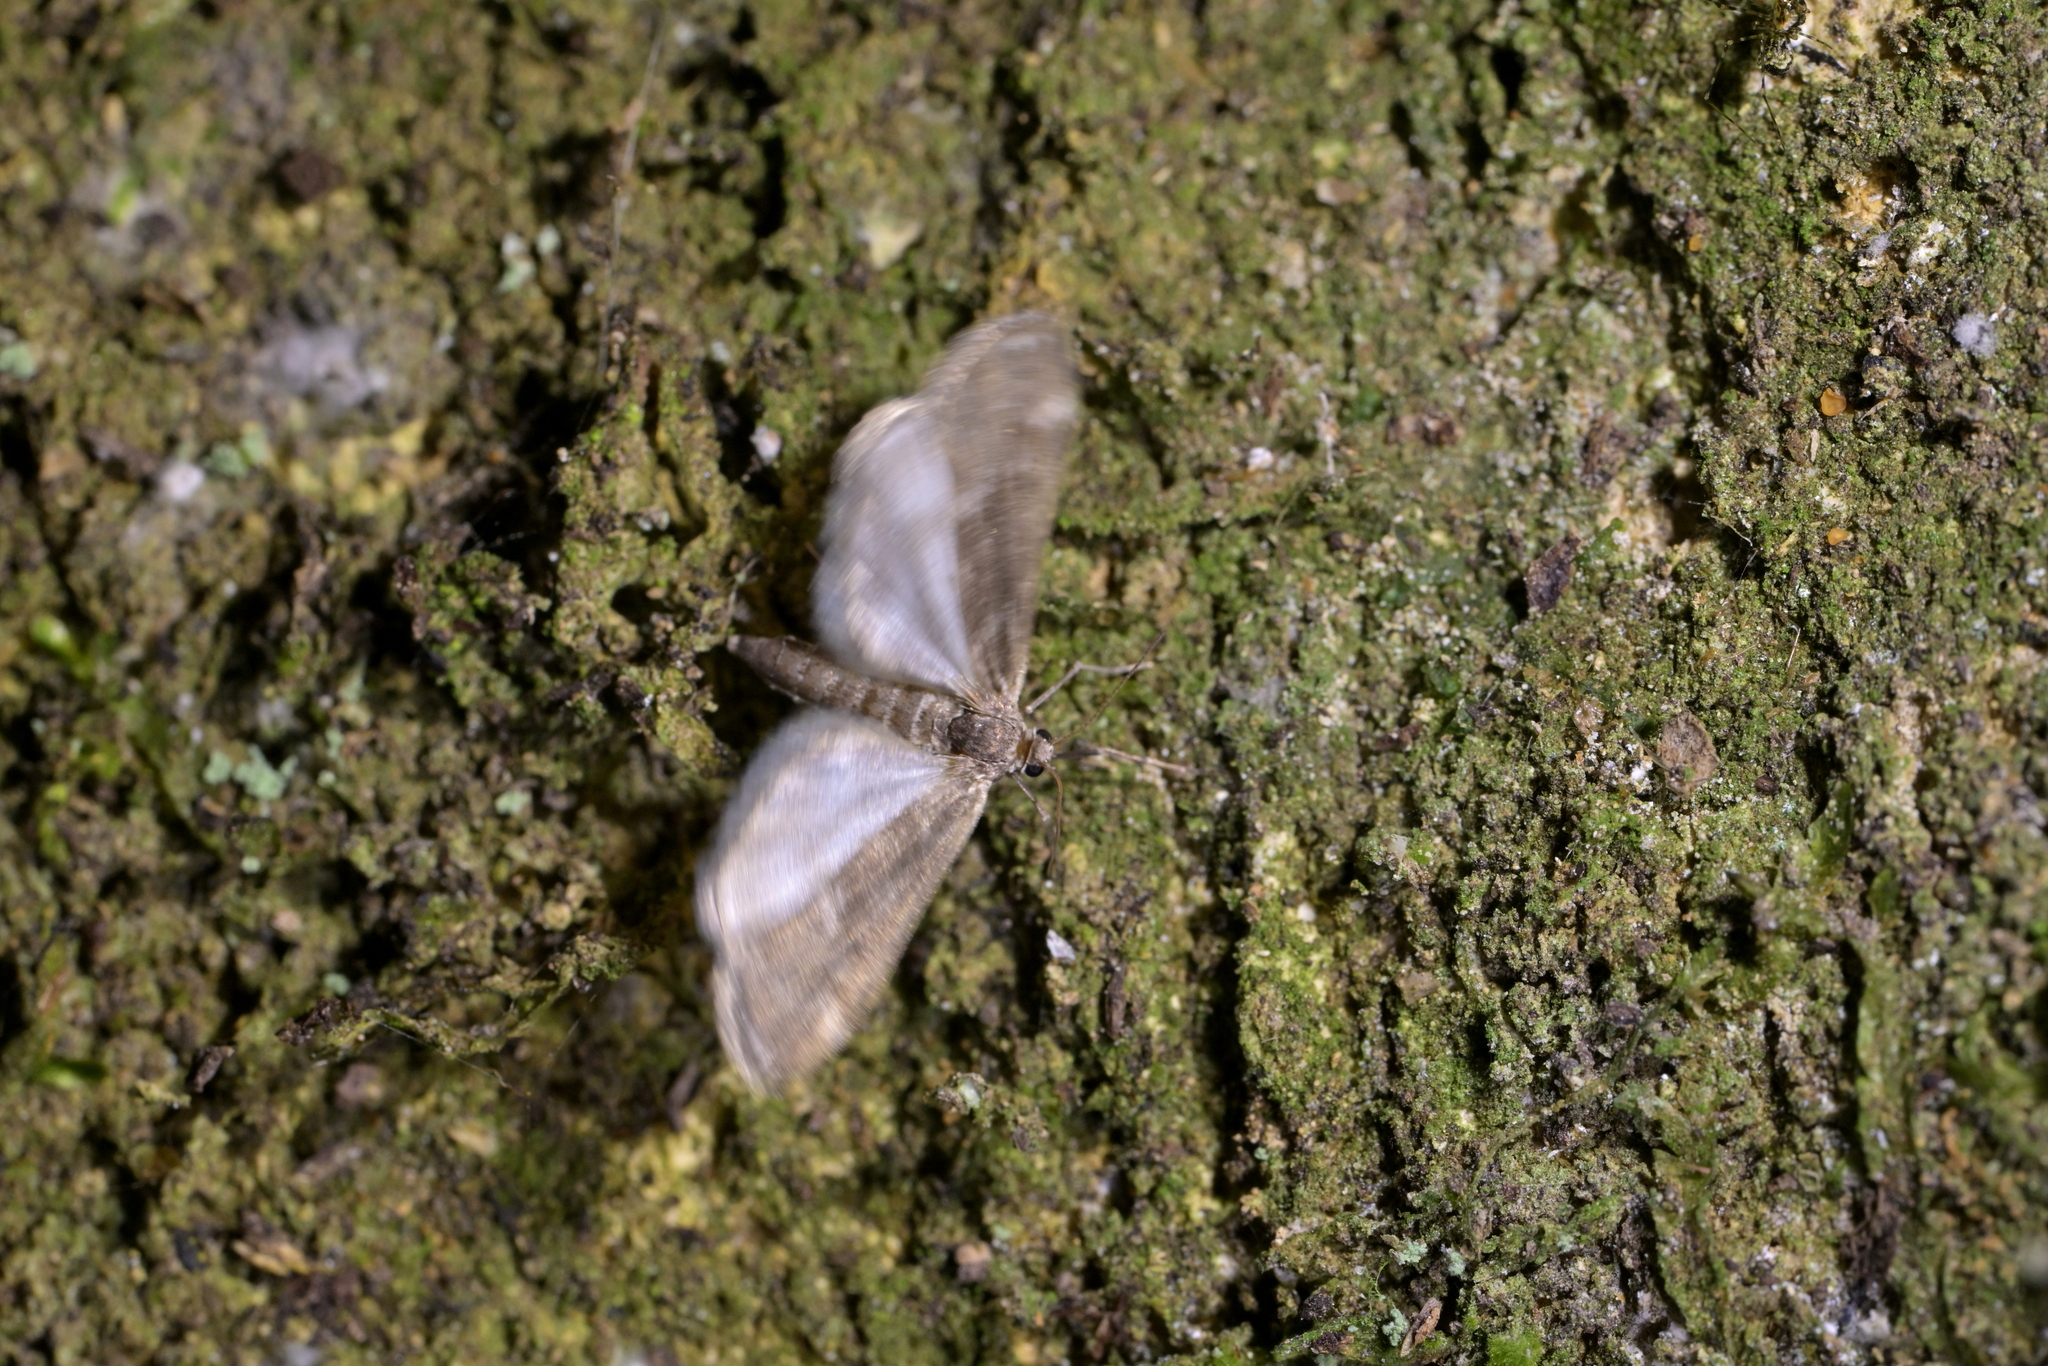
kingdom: Animalia
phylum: Arthropoda
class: Insecta
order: Lepidoptera
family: Crambidae
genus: Hygraula
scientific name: Hygraula nitens
